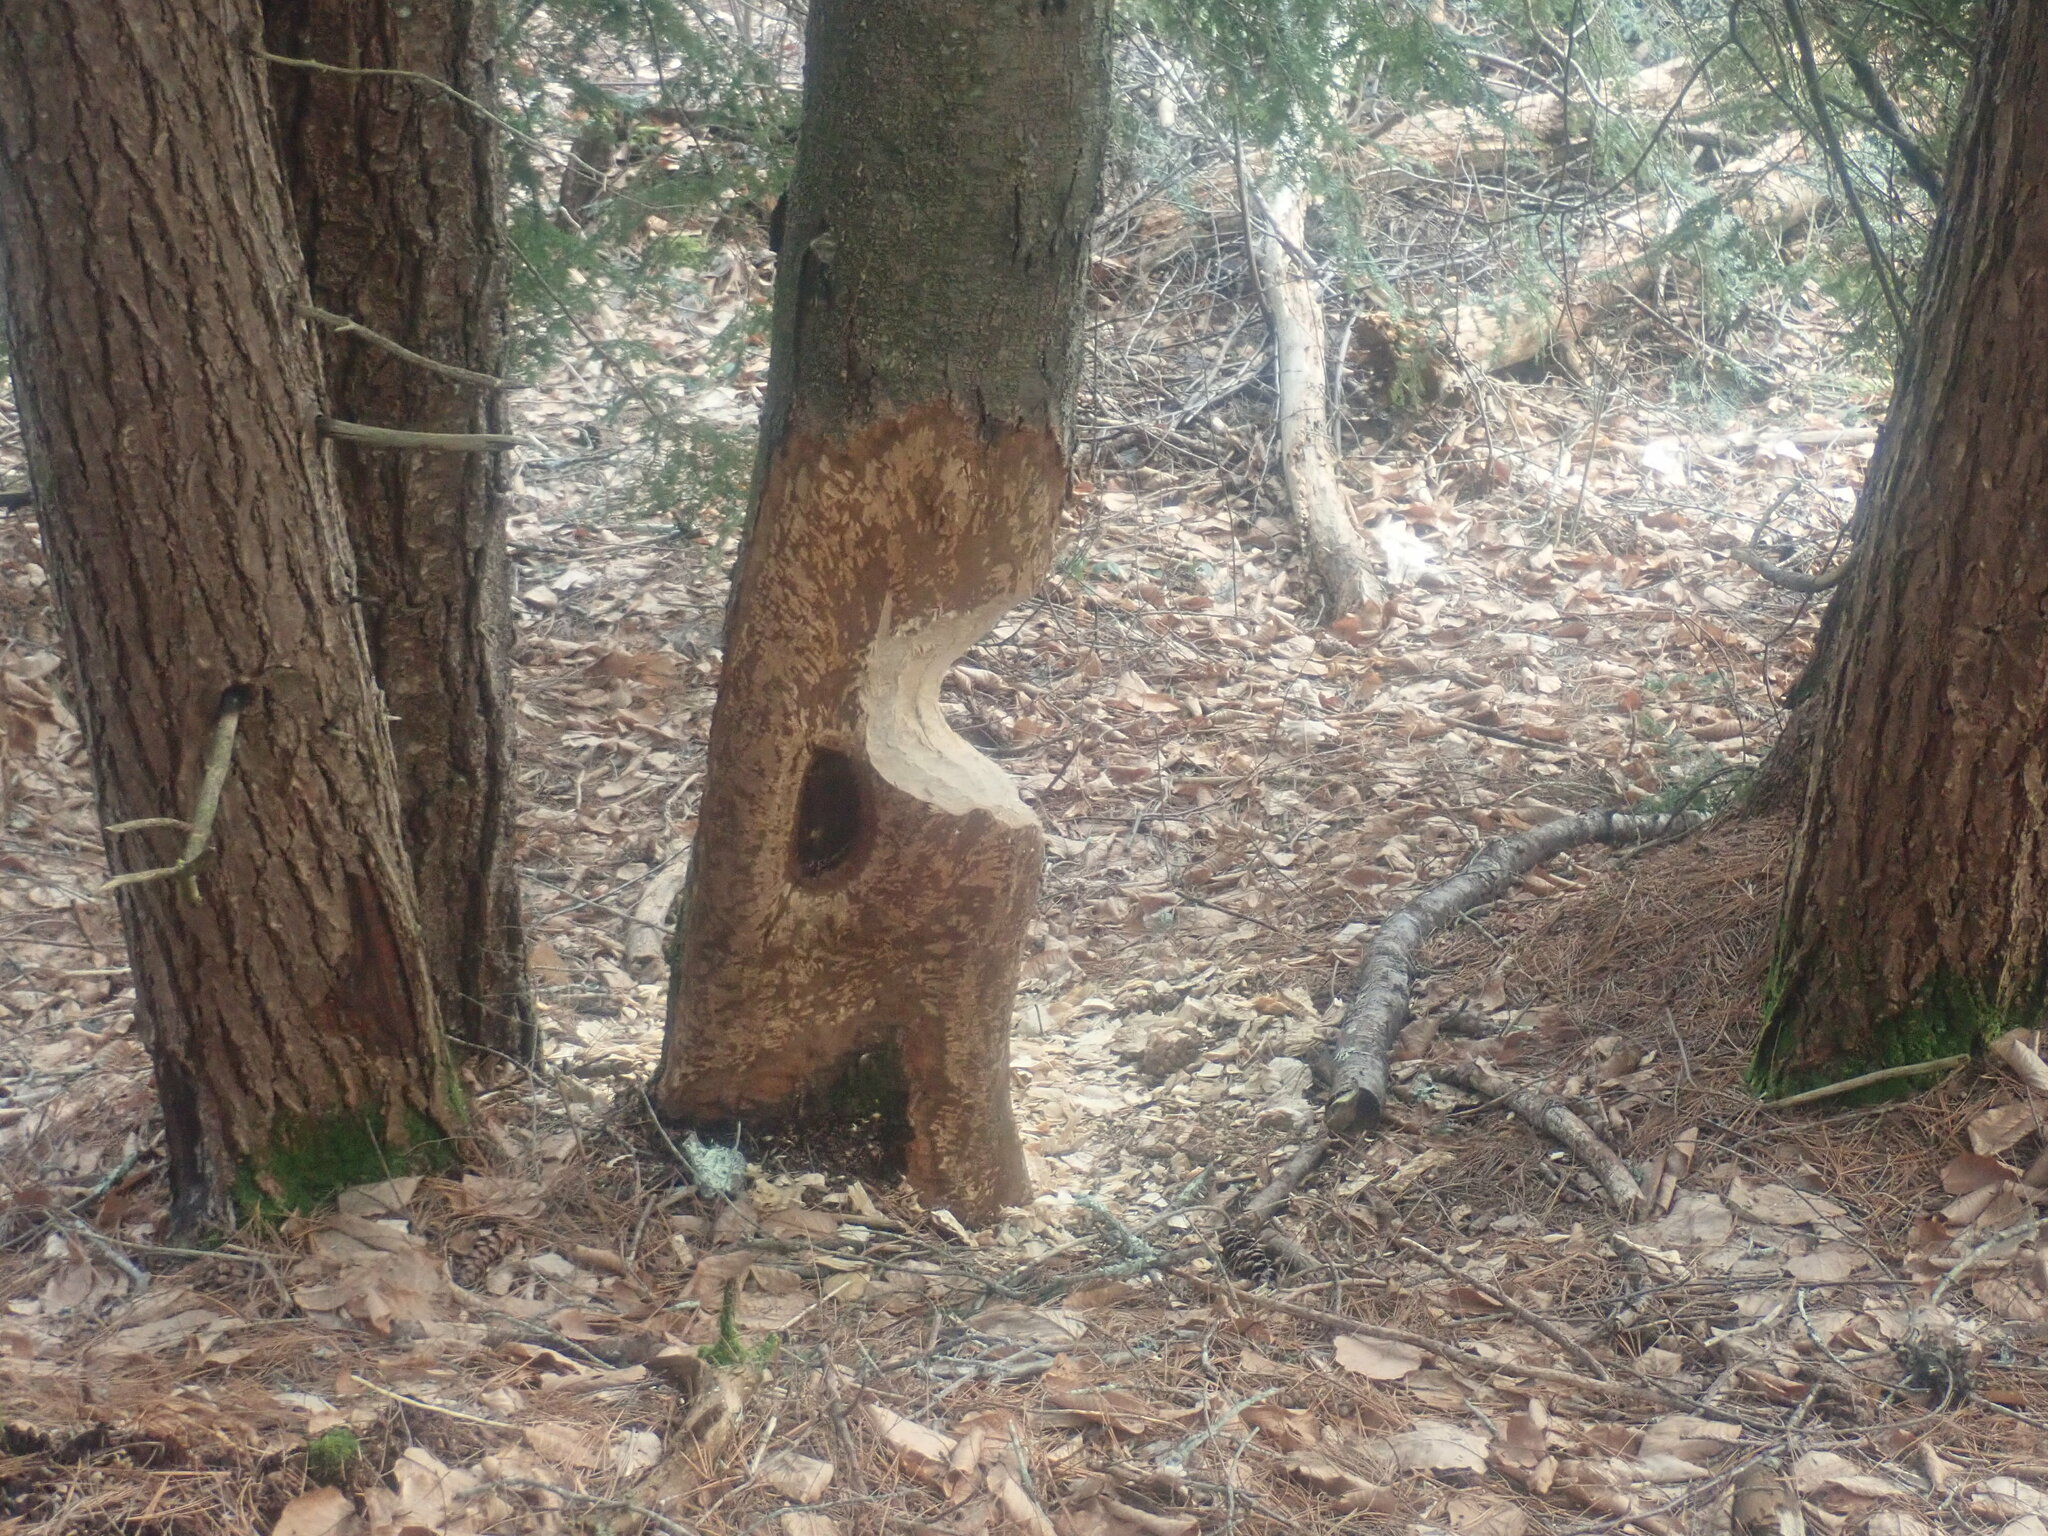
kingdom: Animalia
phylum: Chordata
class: Mammalia
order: Rodentia
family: Castoridae
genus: Castor
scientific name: Castor canadensis
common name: American beaver
